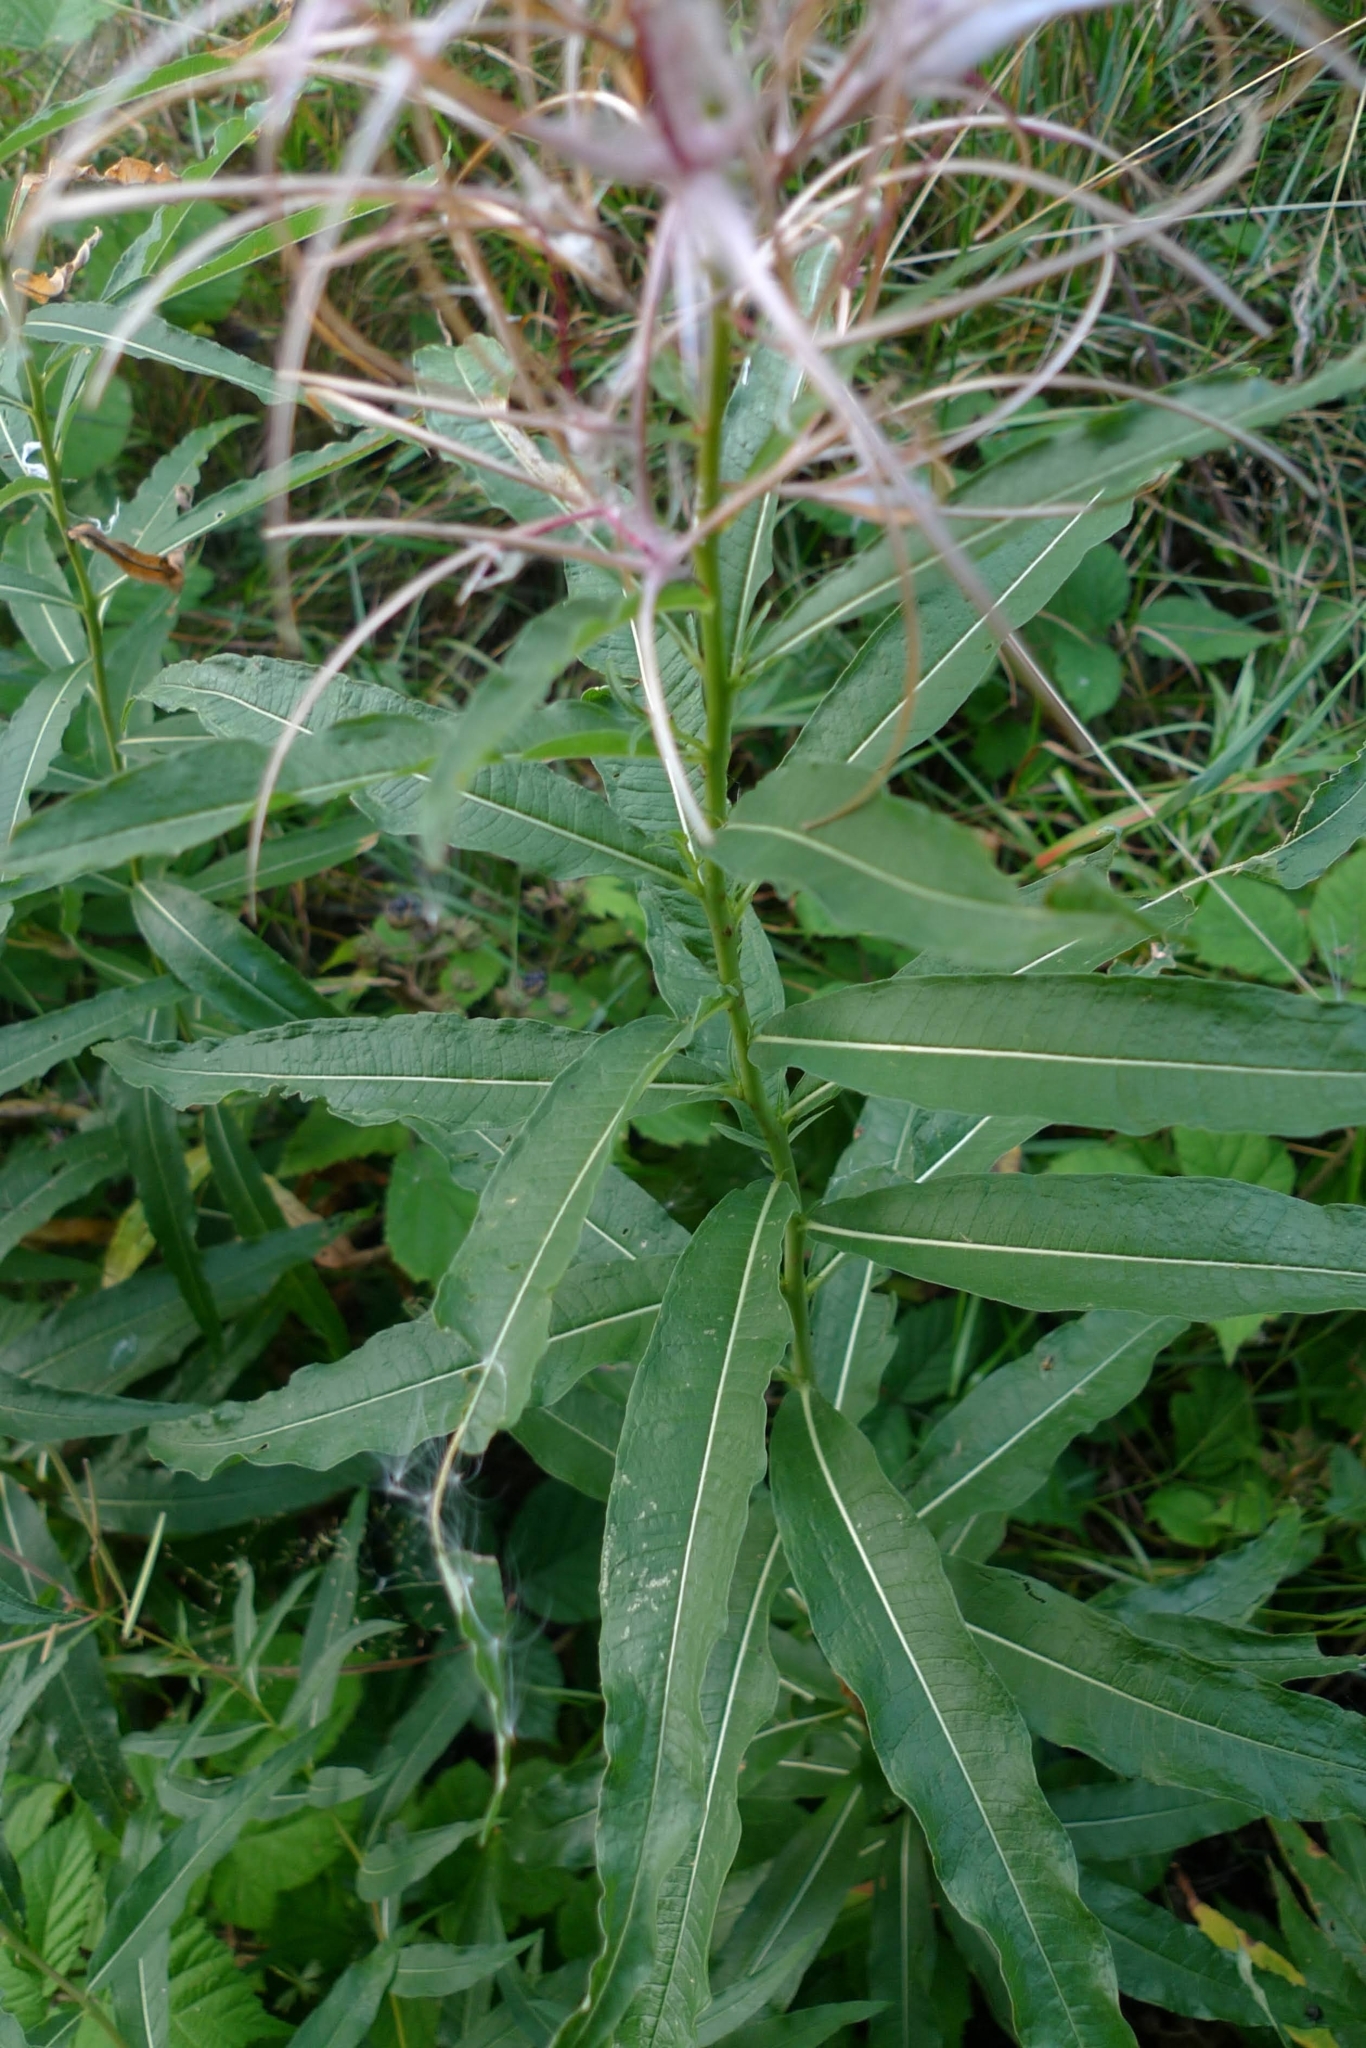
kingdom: Plantae
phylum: Tracheophyta
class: Magnoliopsida
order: Myrtales
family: Onagraceae
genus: Chamaenerion
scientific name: Chamaenerion angustifolium
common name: Fireweed
